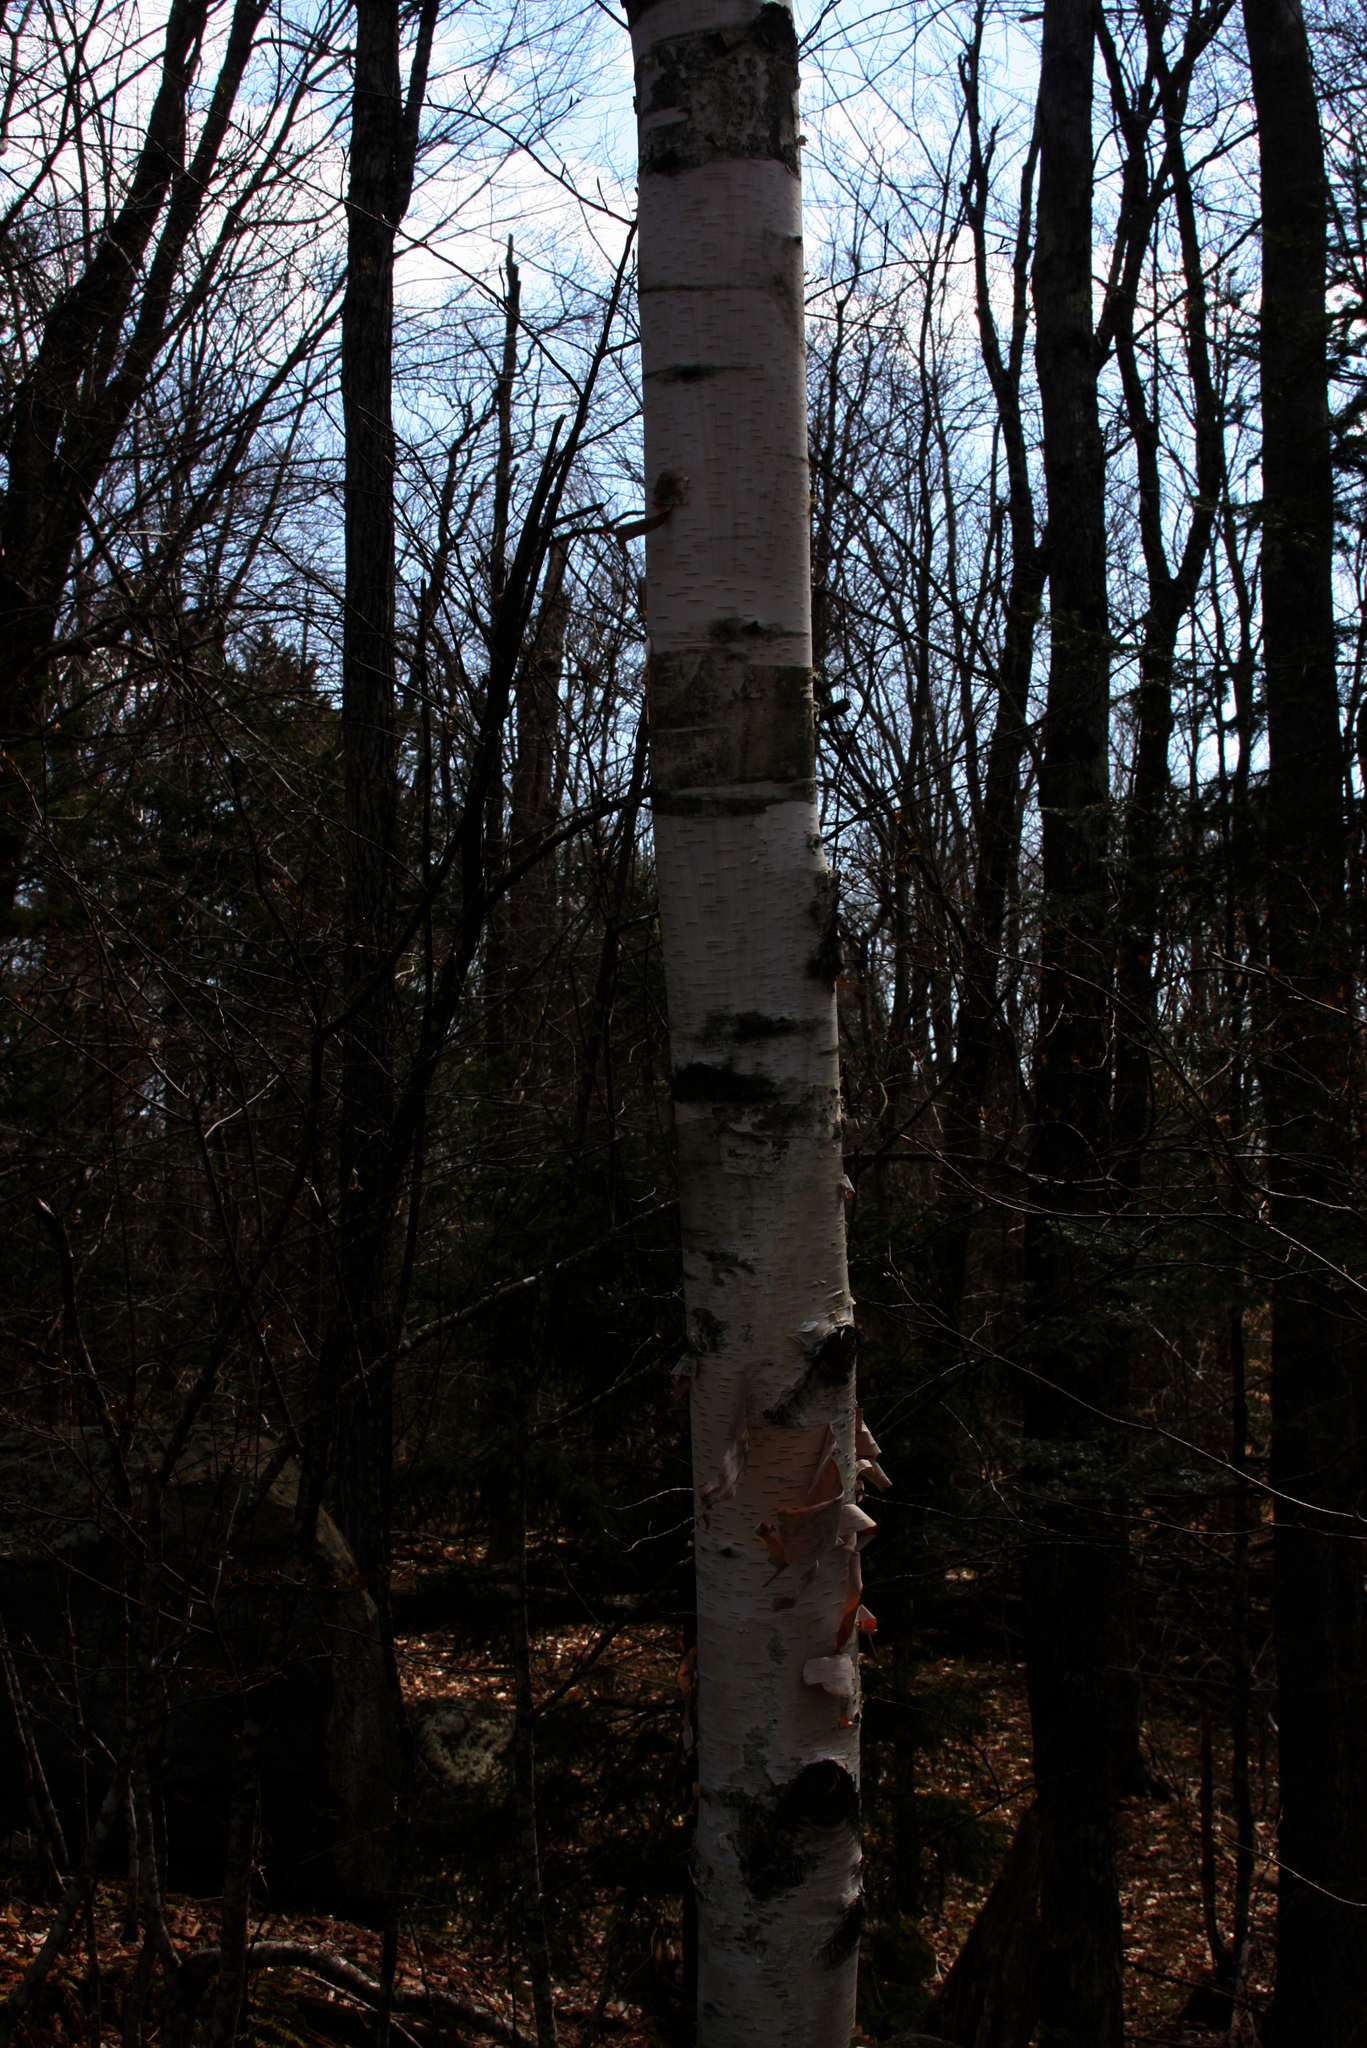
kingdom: Plantae
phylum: Tracheophyta
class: Magnoliopsida
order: Fagales
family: Betulaceae
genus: Betula
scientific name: Betula papyrifera
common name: Paper birch
